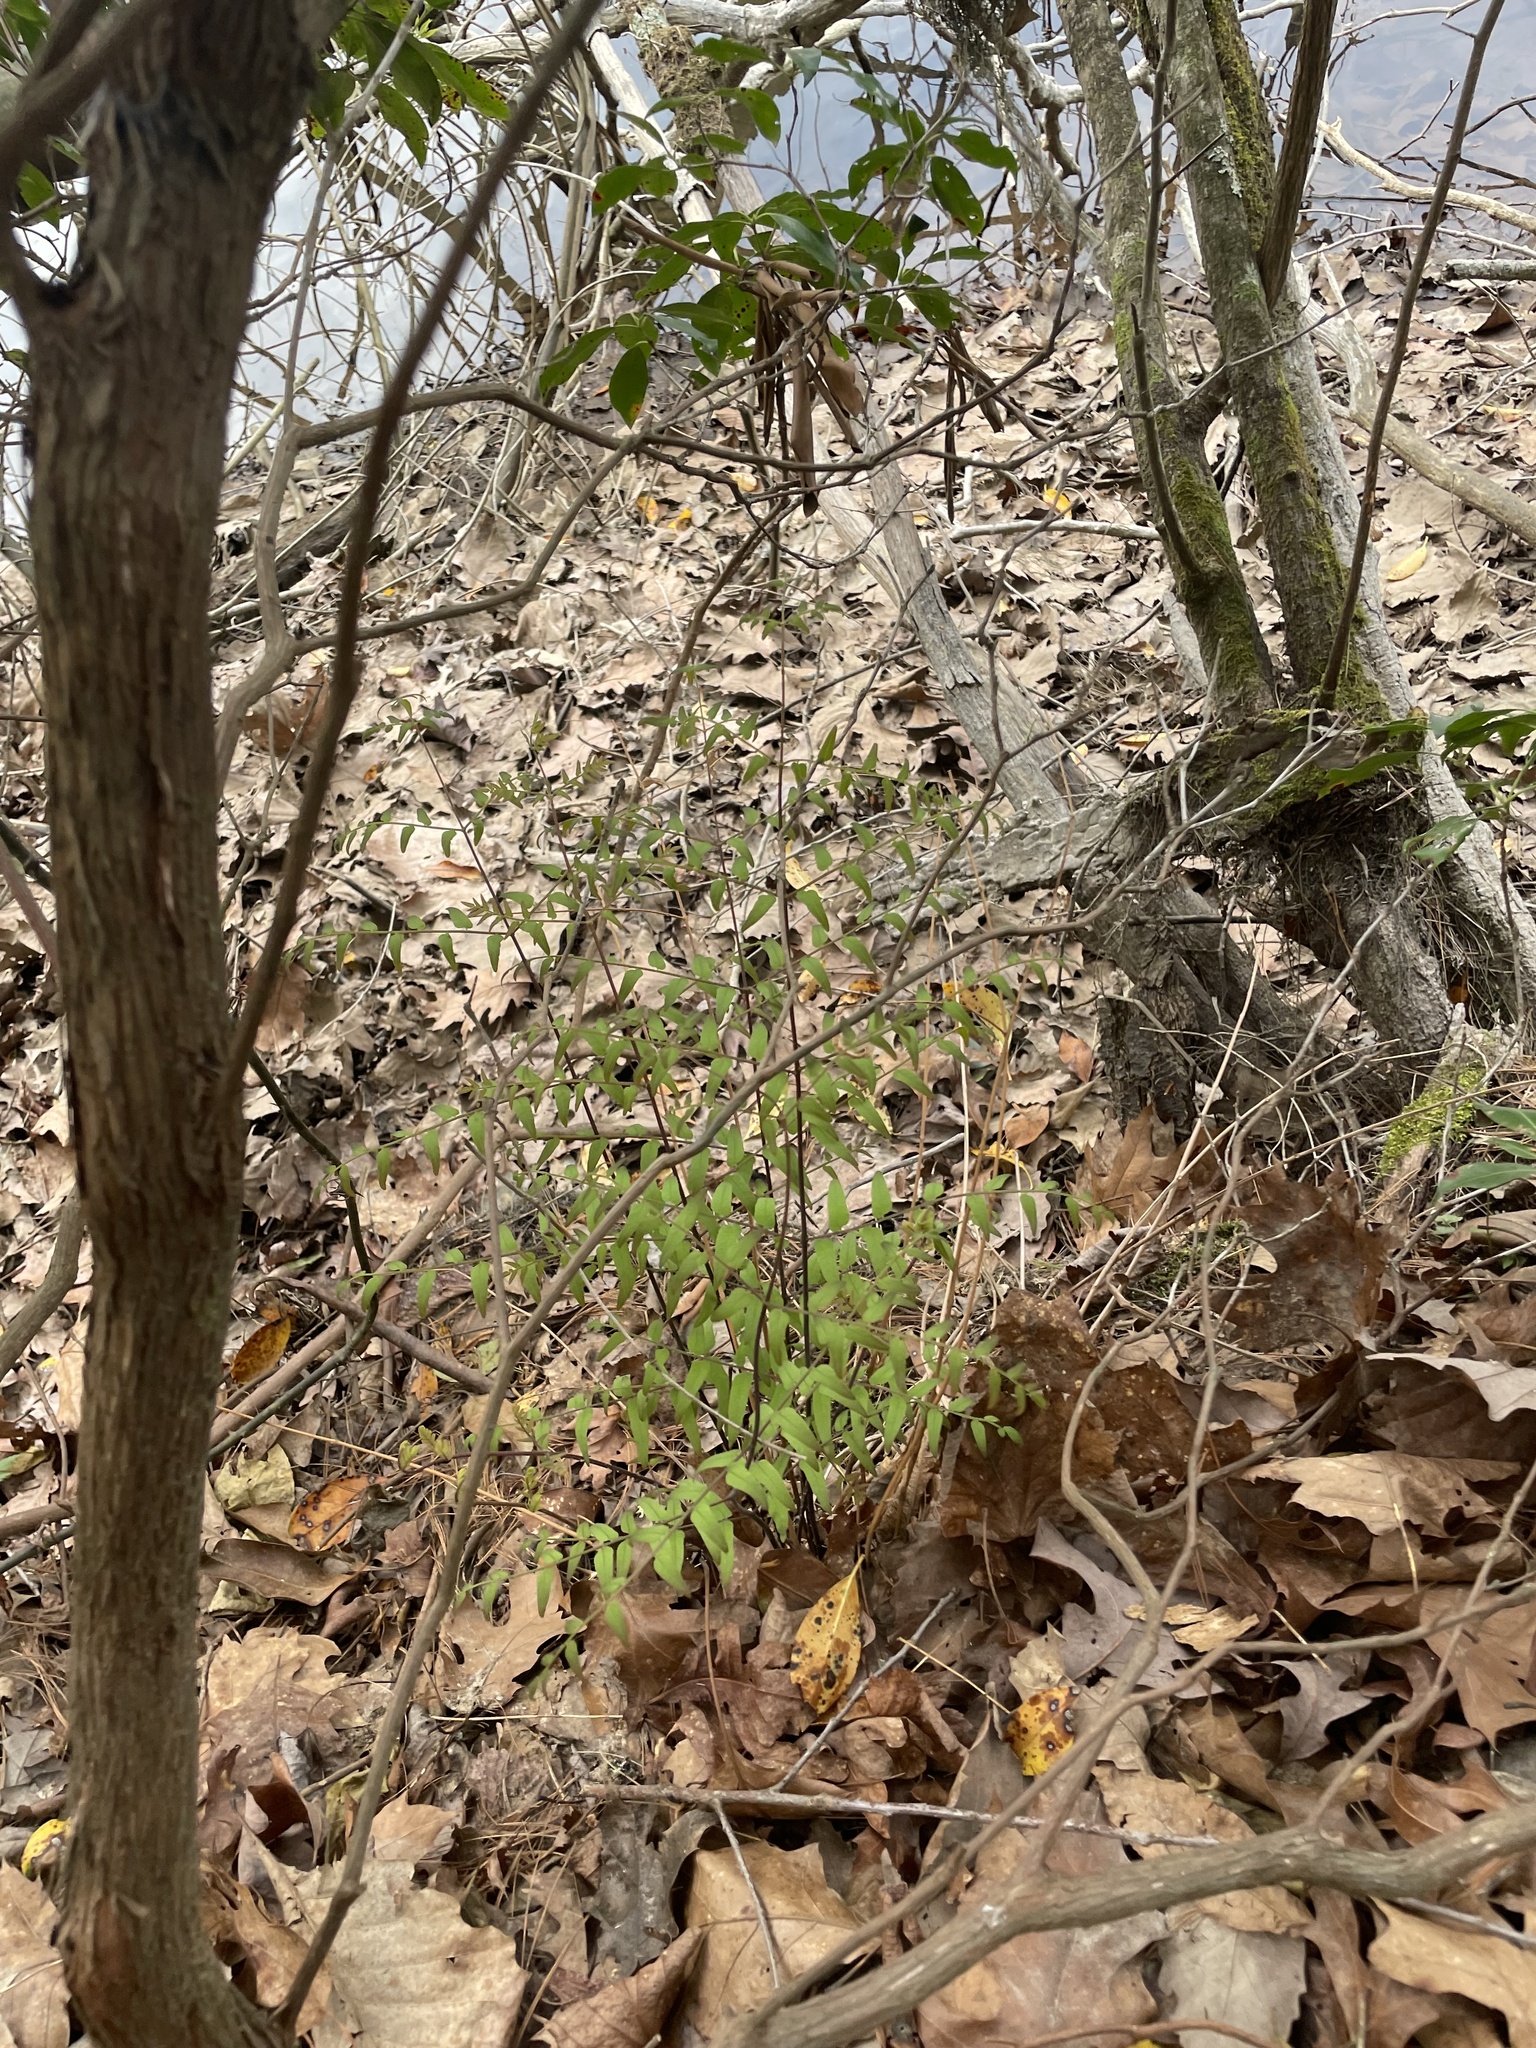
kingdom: Plantae
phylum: Tracheophyta
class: Polypodiopsida
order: Osmundales
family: Osmundaceae
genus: Osmunda
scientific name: Osmunda spectabilis
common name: American royal fern
